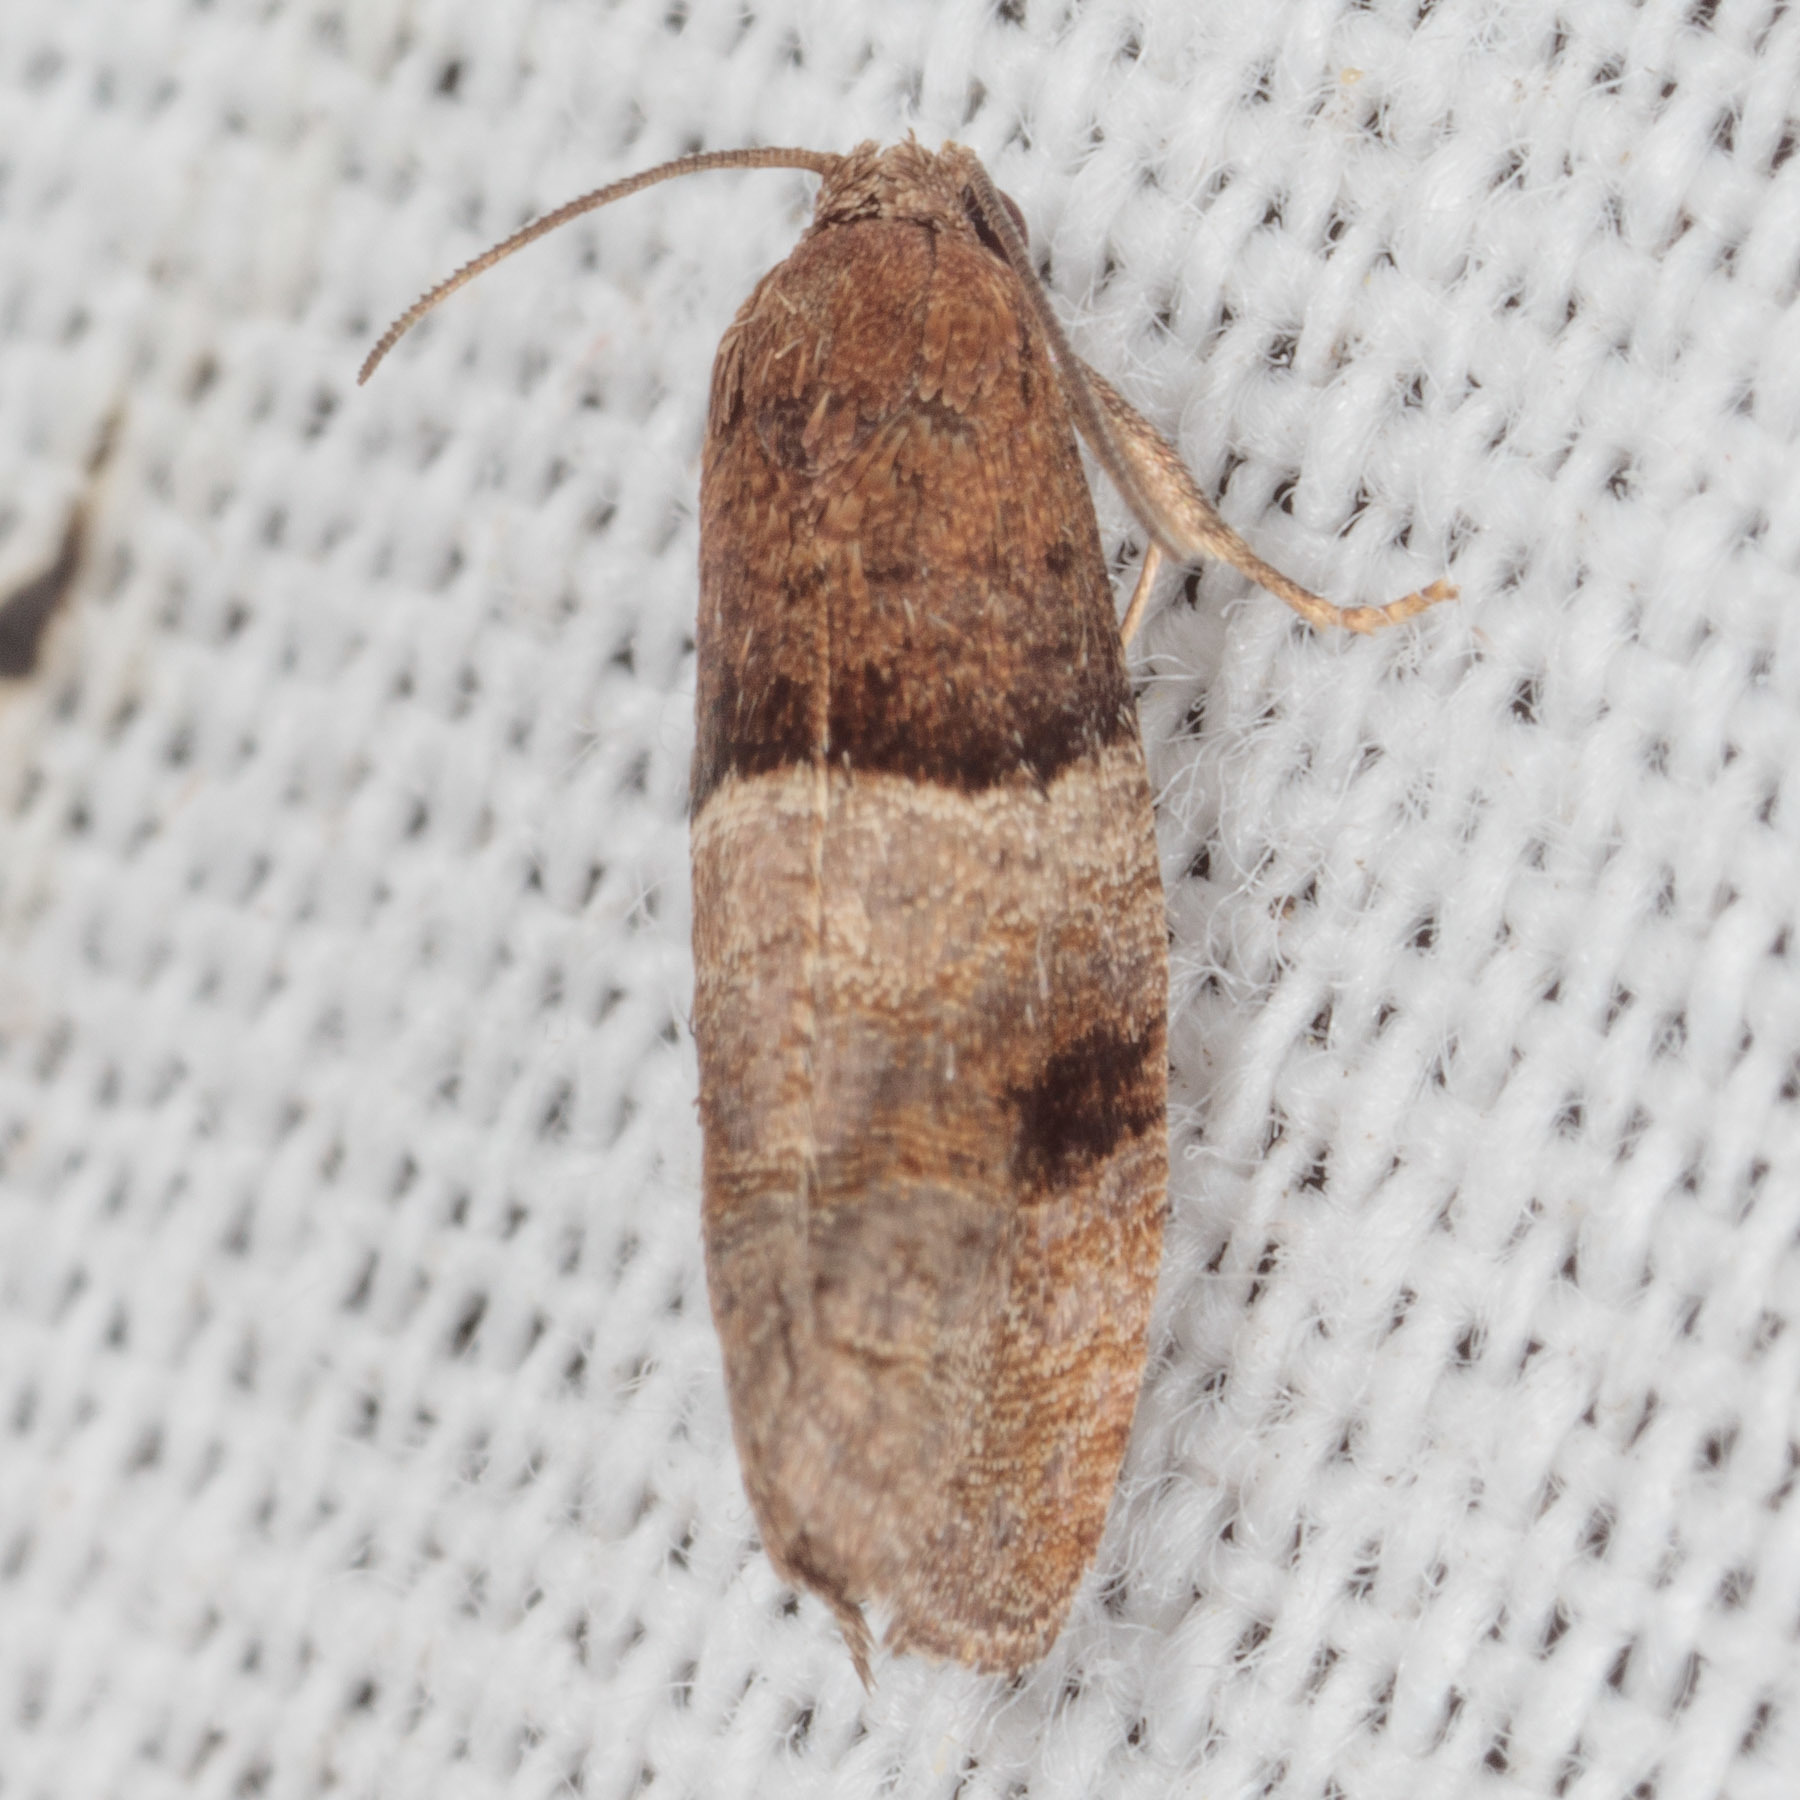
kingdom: Animalia
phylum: Arthropoda
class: Insecta
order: Lepidoptera
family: Tortricidae
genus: Larisa
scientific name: Larisa subsolana
